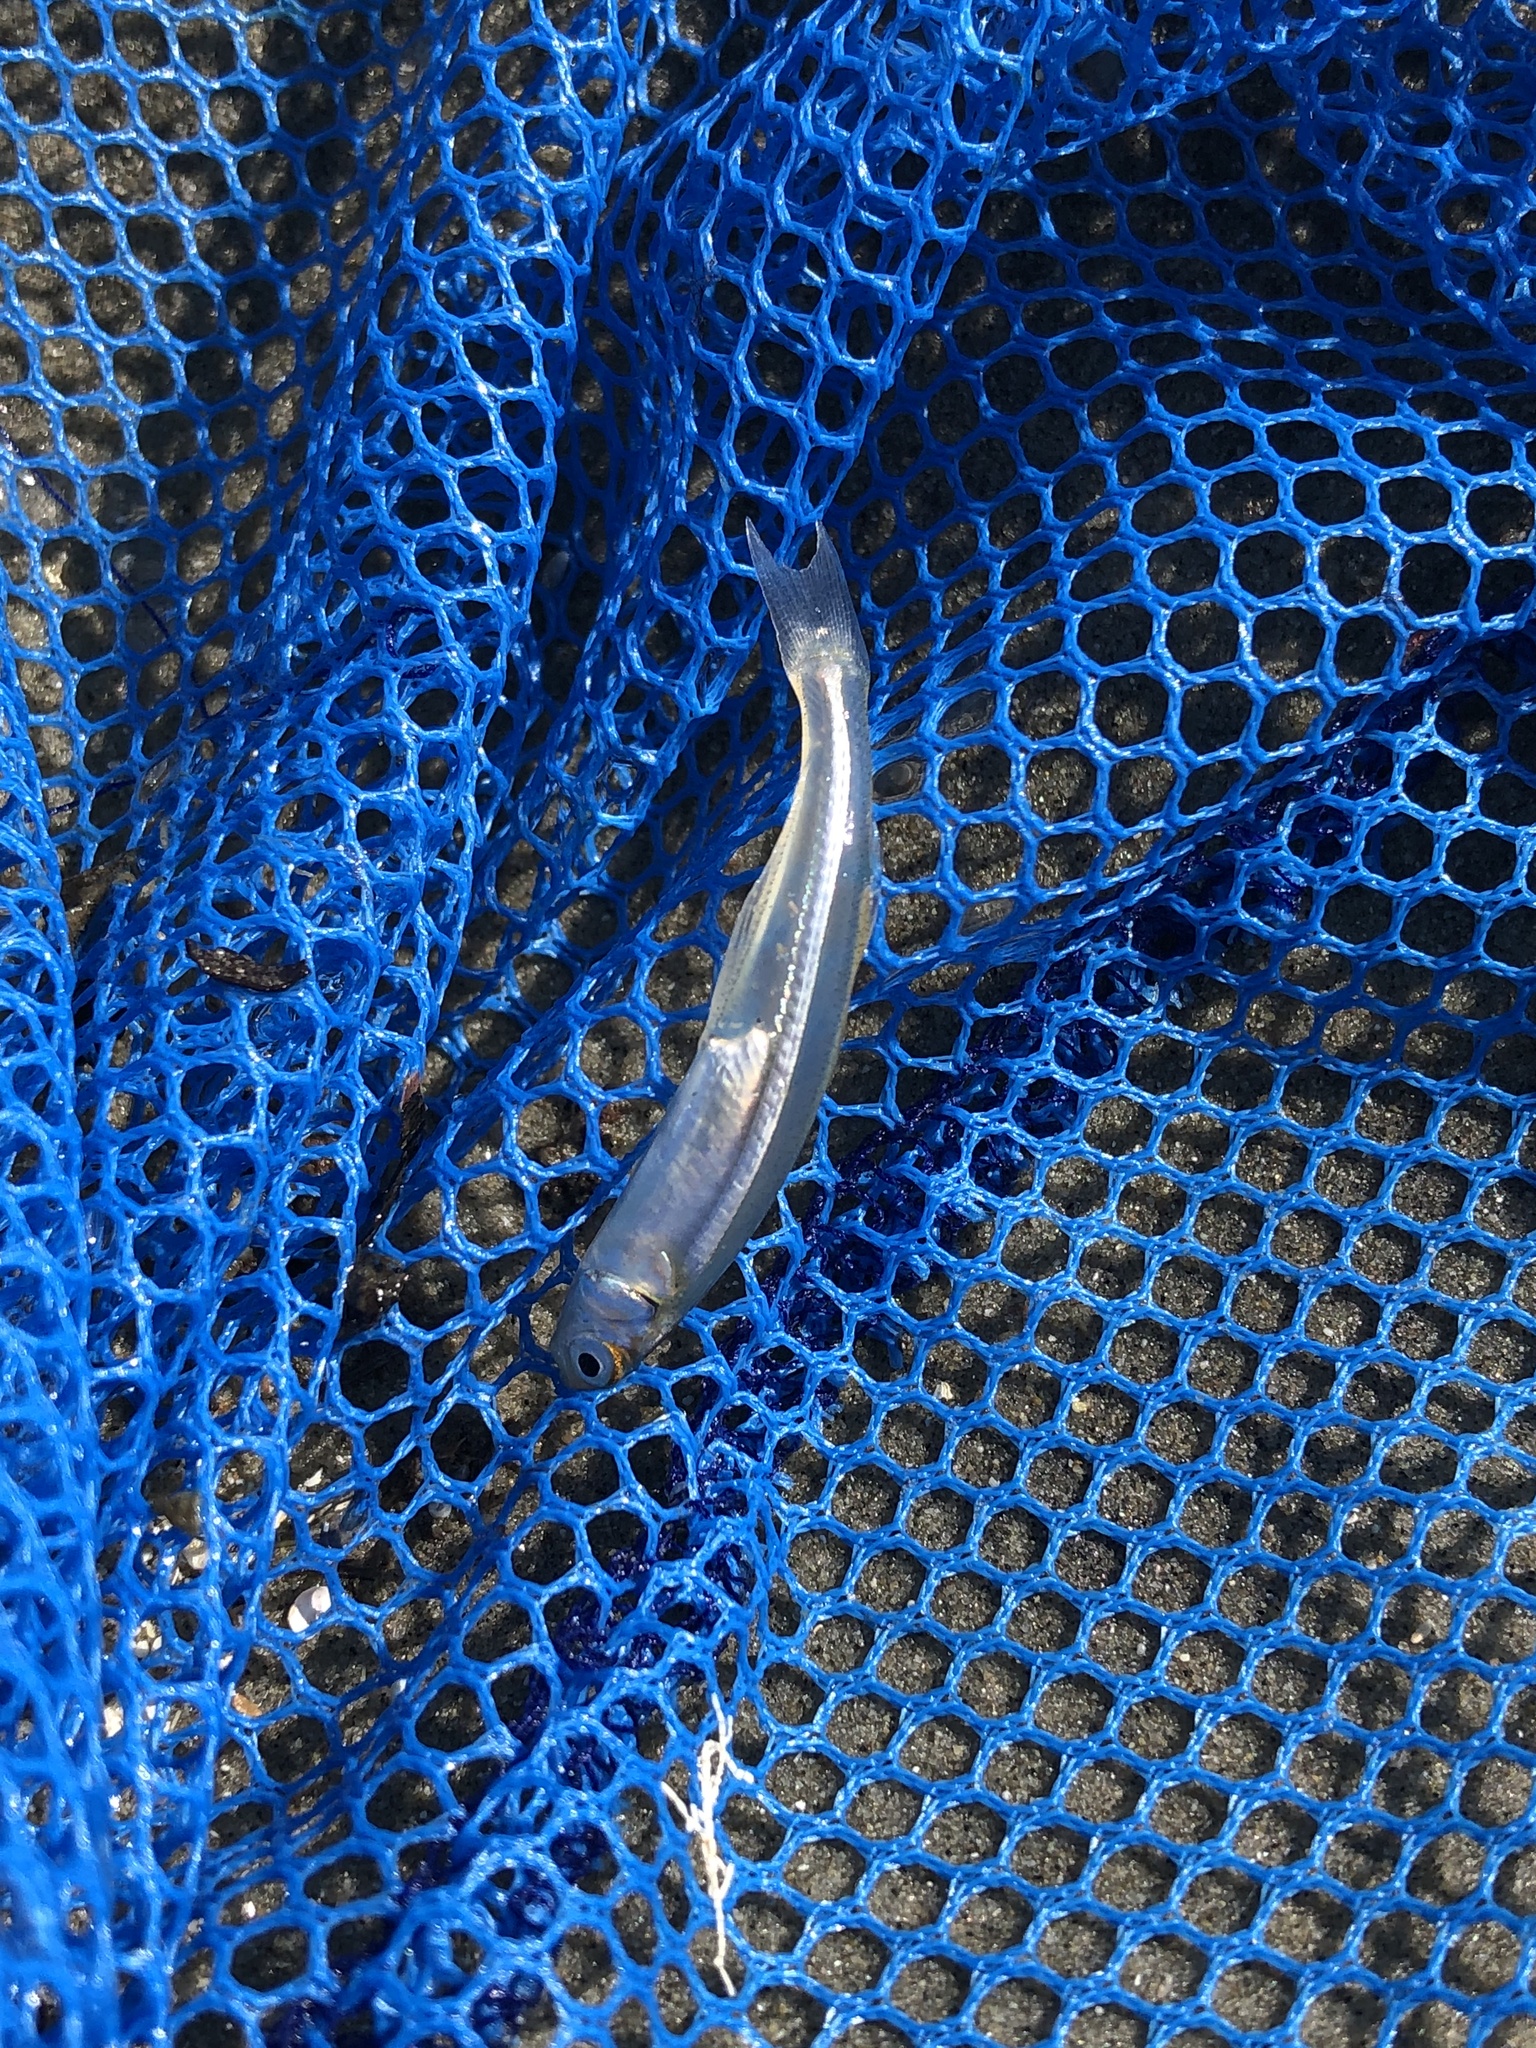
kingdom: Animalia
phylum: Chordata
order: Atheriniformes
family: Atherinopsidae
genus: Menidia
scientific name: Menidia menidia
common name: Atlantic silverside
